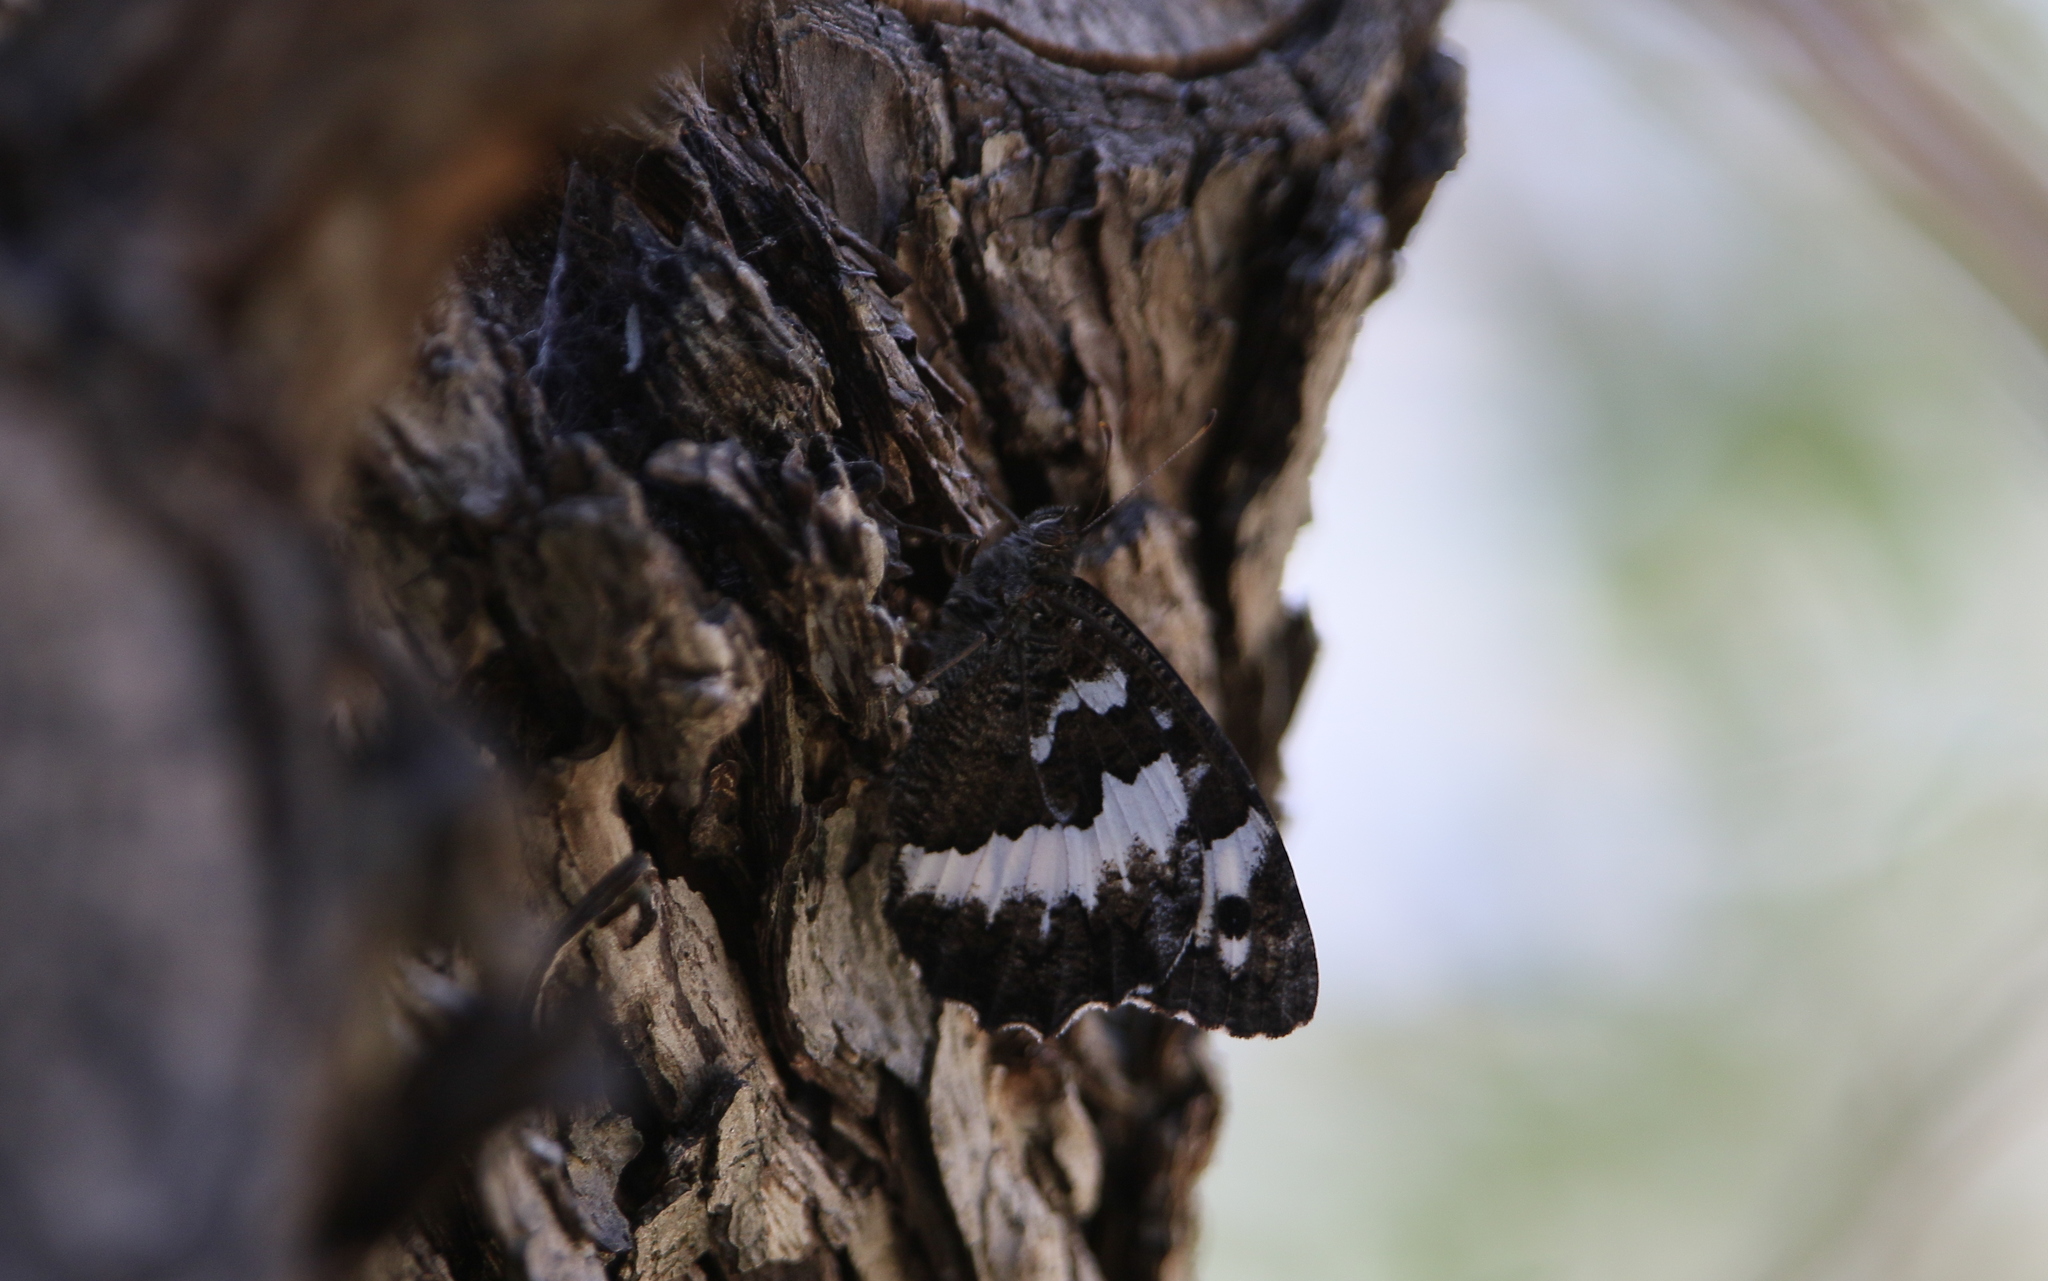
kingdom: Animalia
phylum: Arthropoda
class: Insecta
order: Lepidoptera
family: Lycaenidae
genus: Loweia
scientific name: Loweia tityrus
